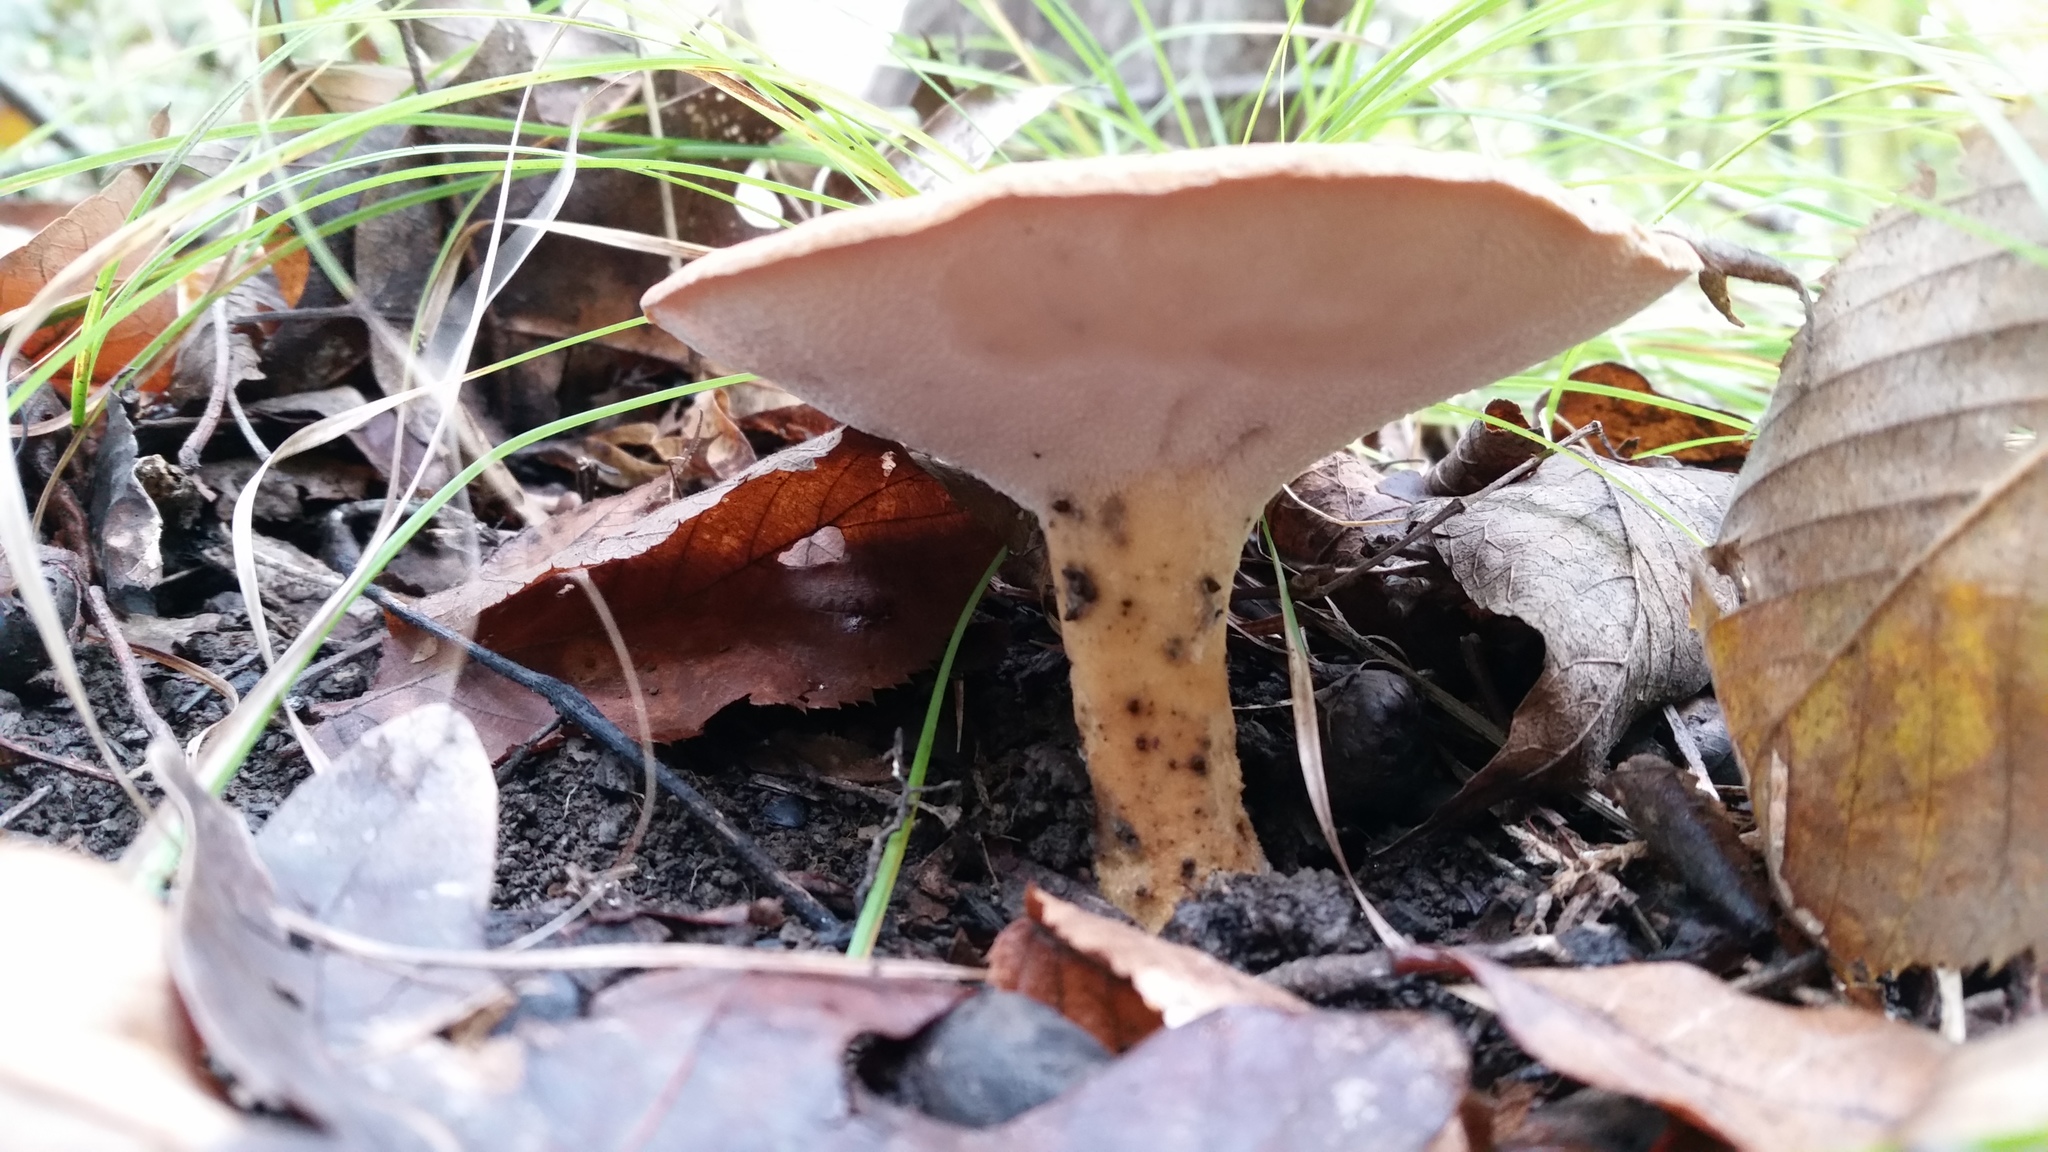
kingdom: Fungi
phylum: Basidiomycota
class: Agaricomycetes
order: Polyporales
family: Polyporaceae
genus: Polyporus
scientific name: Polyporus radicatus
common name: Rooting polypore
